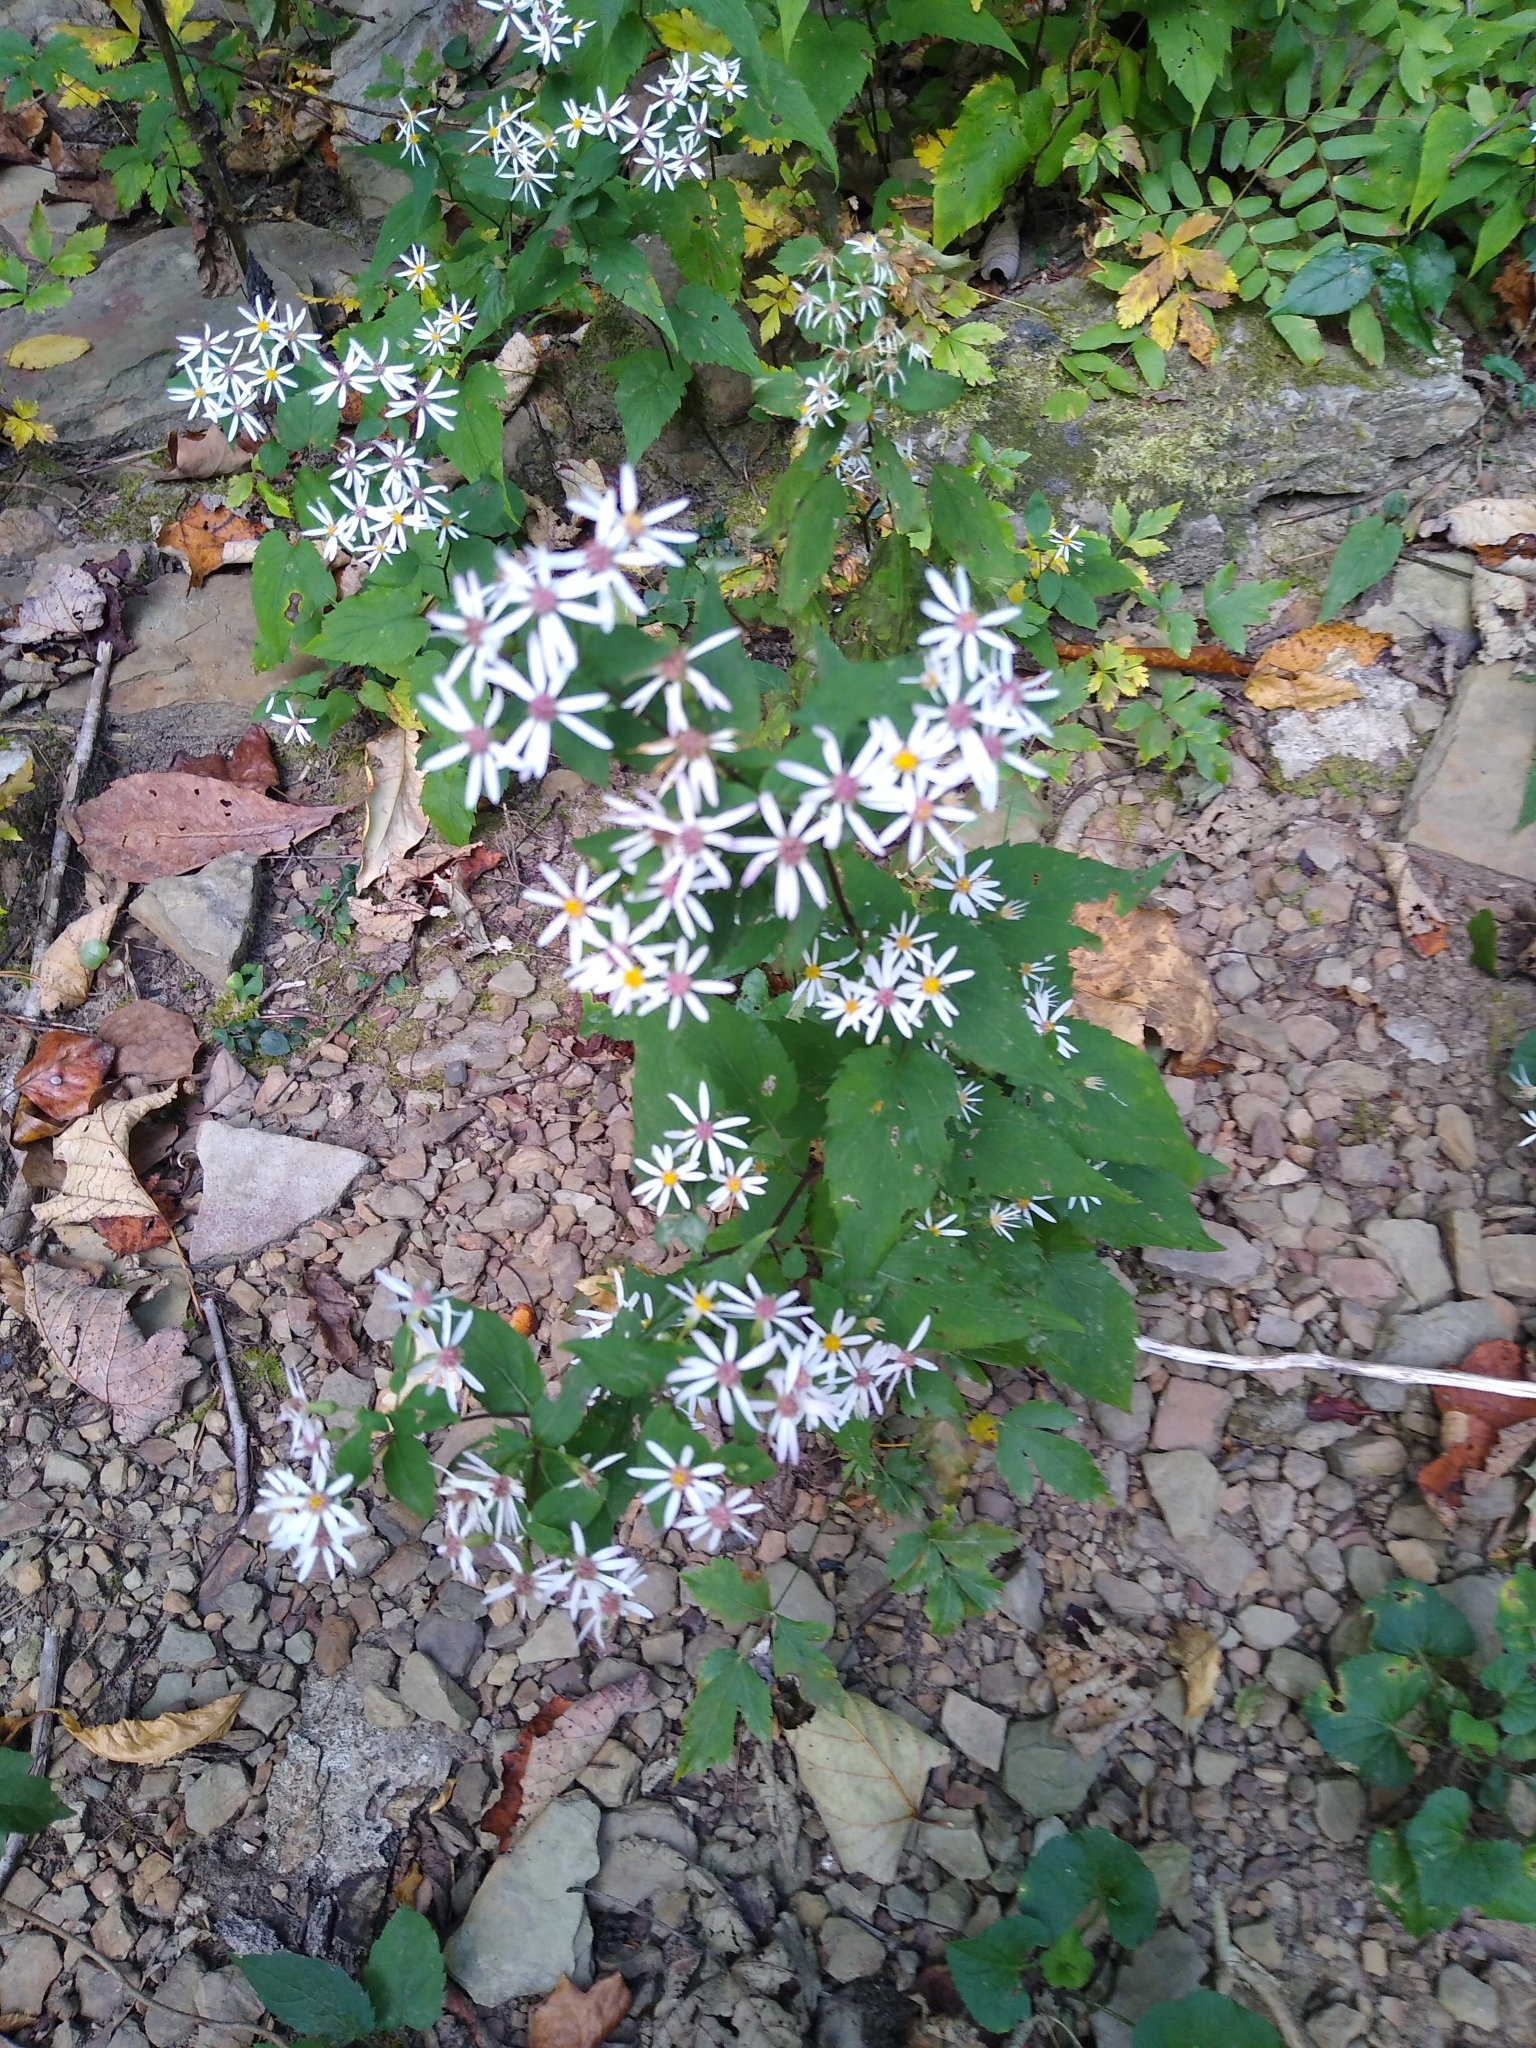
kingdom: Plantae
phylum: Tracheophyta
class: Magnoliopsida
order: Asterales
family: Asteraceae
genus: Eurybia
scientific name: Eurybia divaricata
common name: White wood aster
